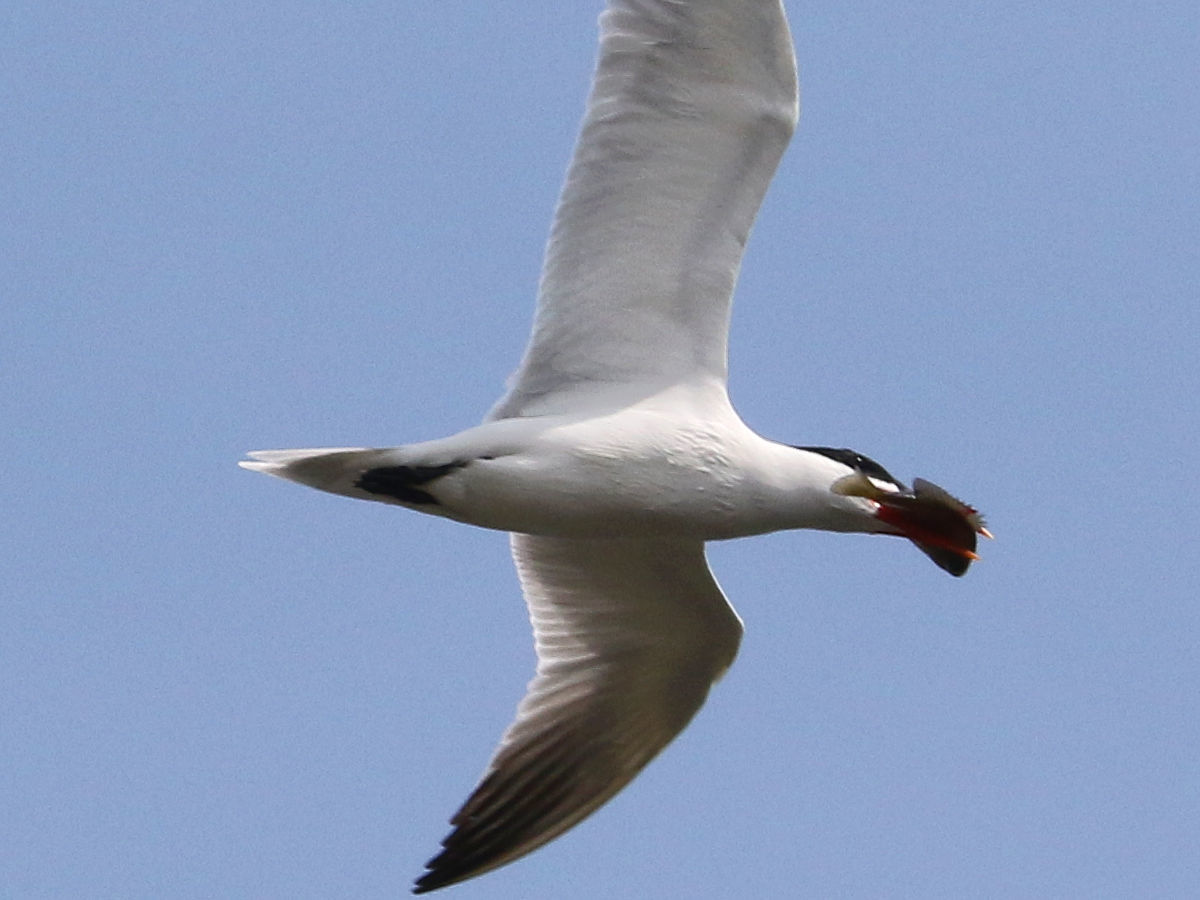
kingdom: Animalia
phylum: Chordata
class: Aves
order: Charadriiformes
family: Laridae
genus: Hydroprogne
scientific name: Hydroprogne caspia
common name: Caspian tern
